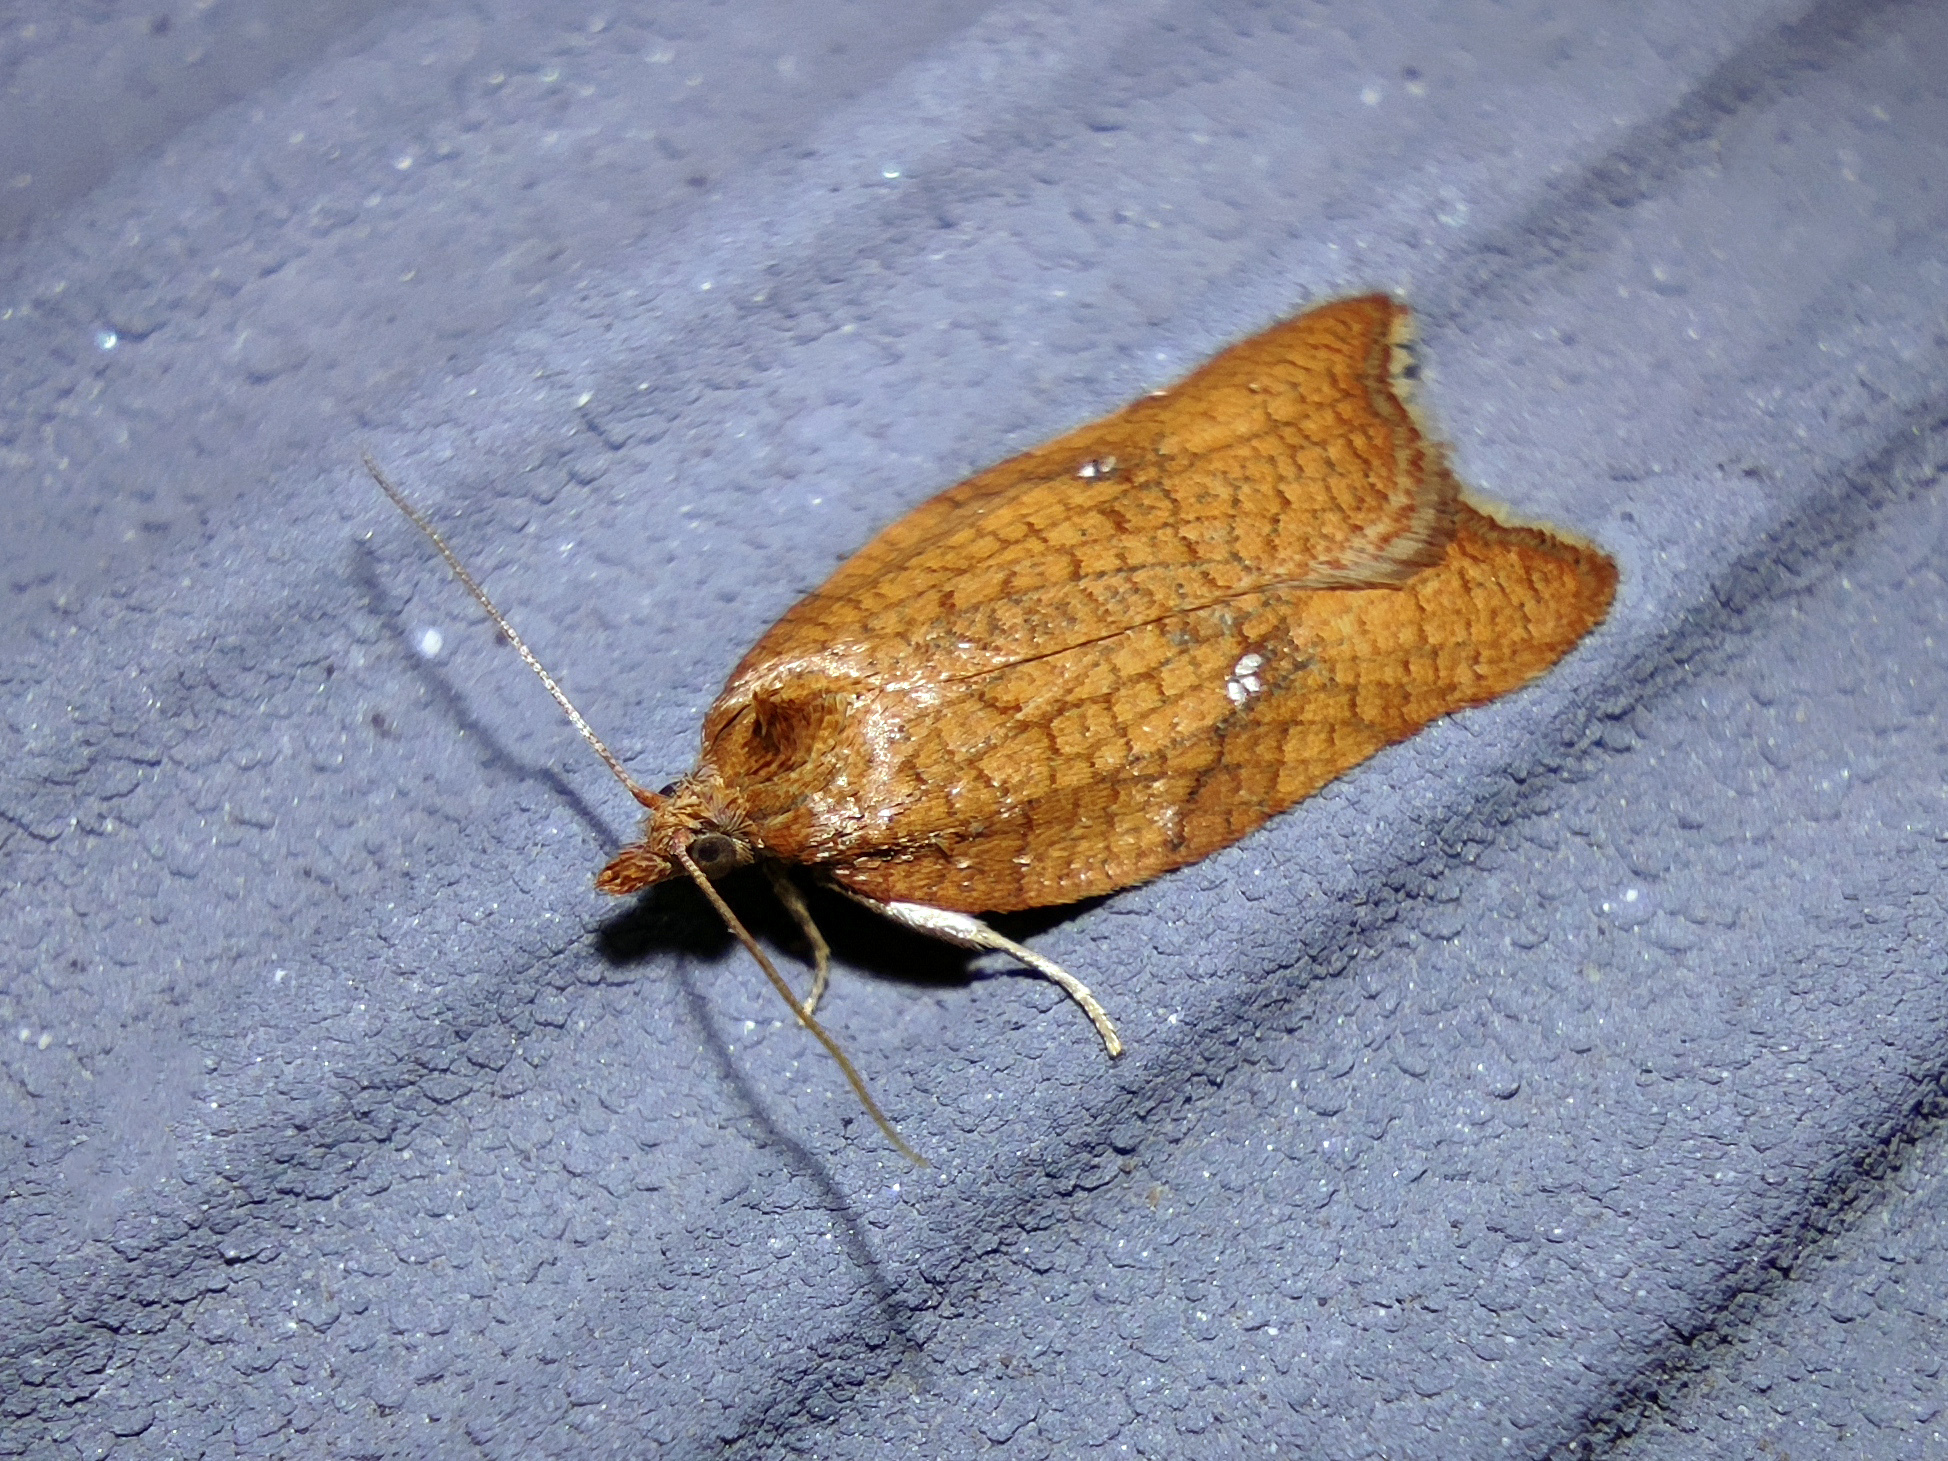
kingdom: Animalia
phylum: Arthropoda
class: Insecta
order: Lepidoptera
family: Tortricidae
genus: Acleris
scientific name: Acleris rhombana
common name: Tortricid moth
